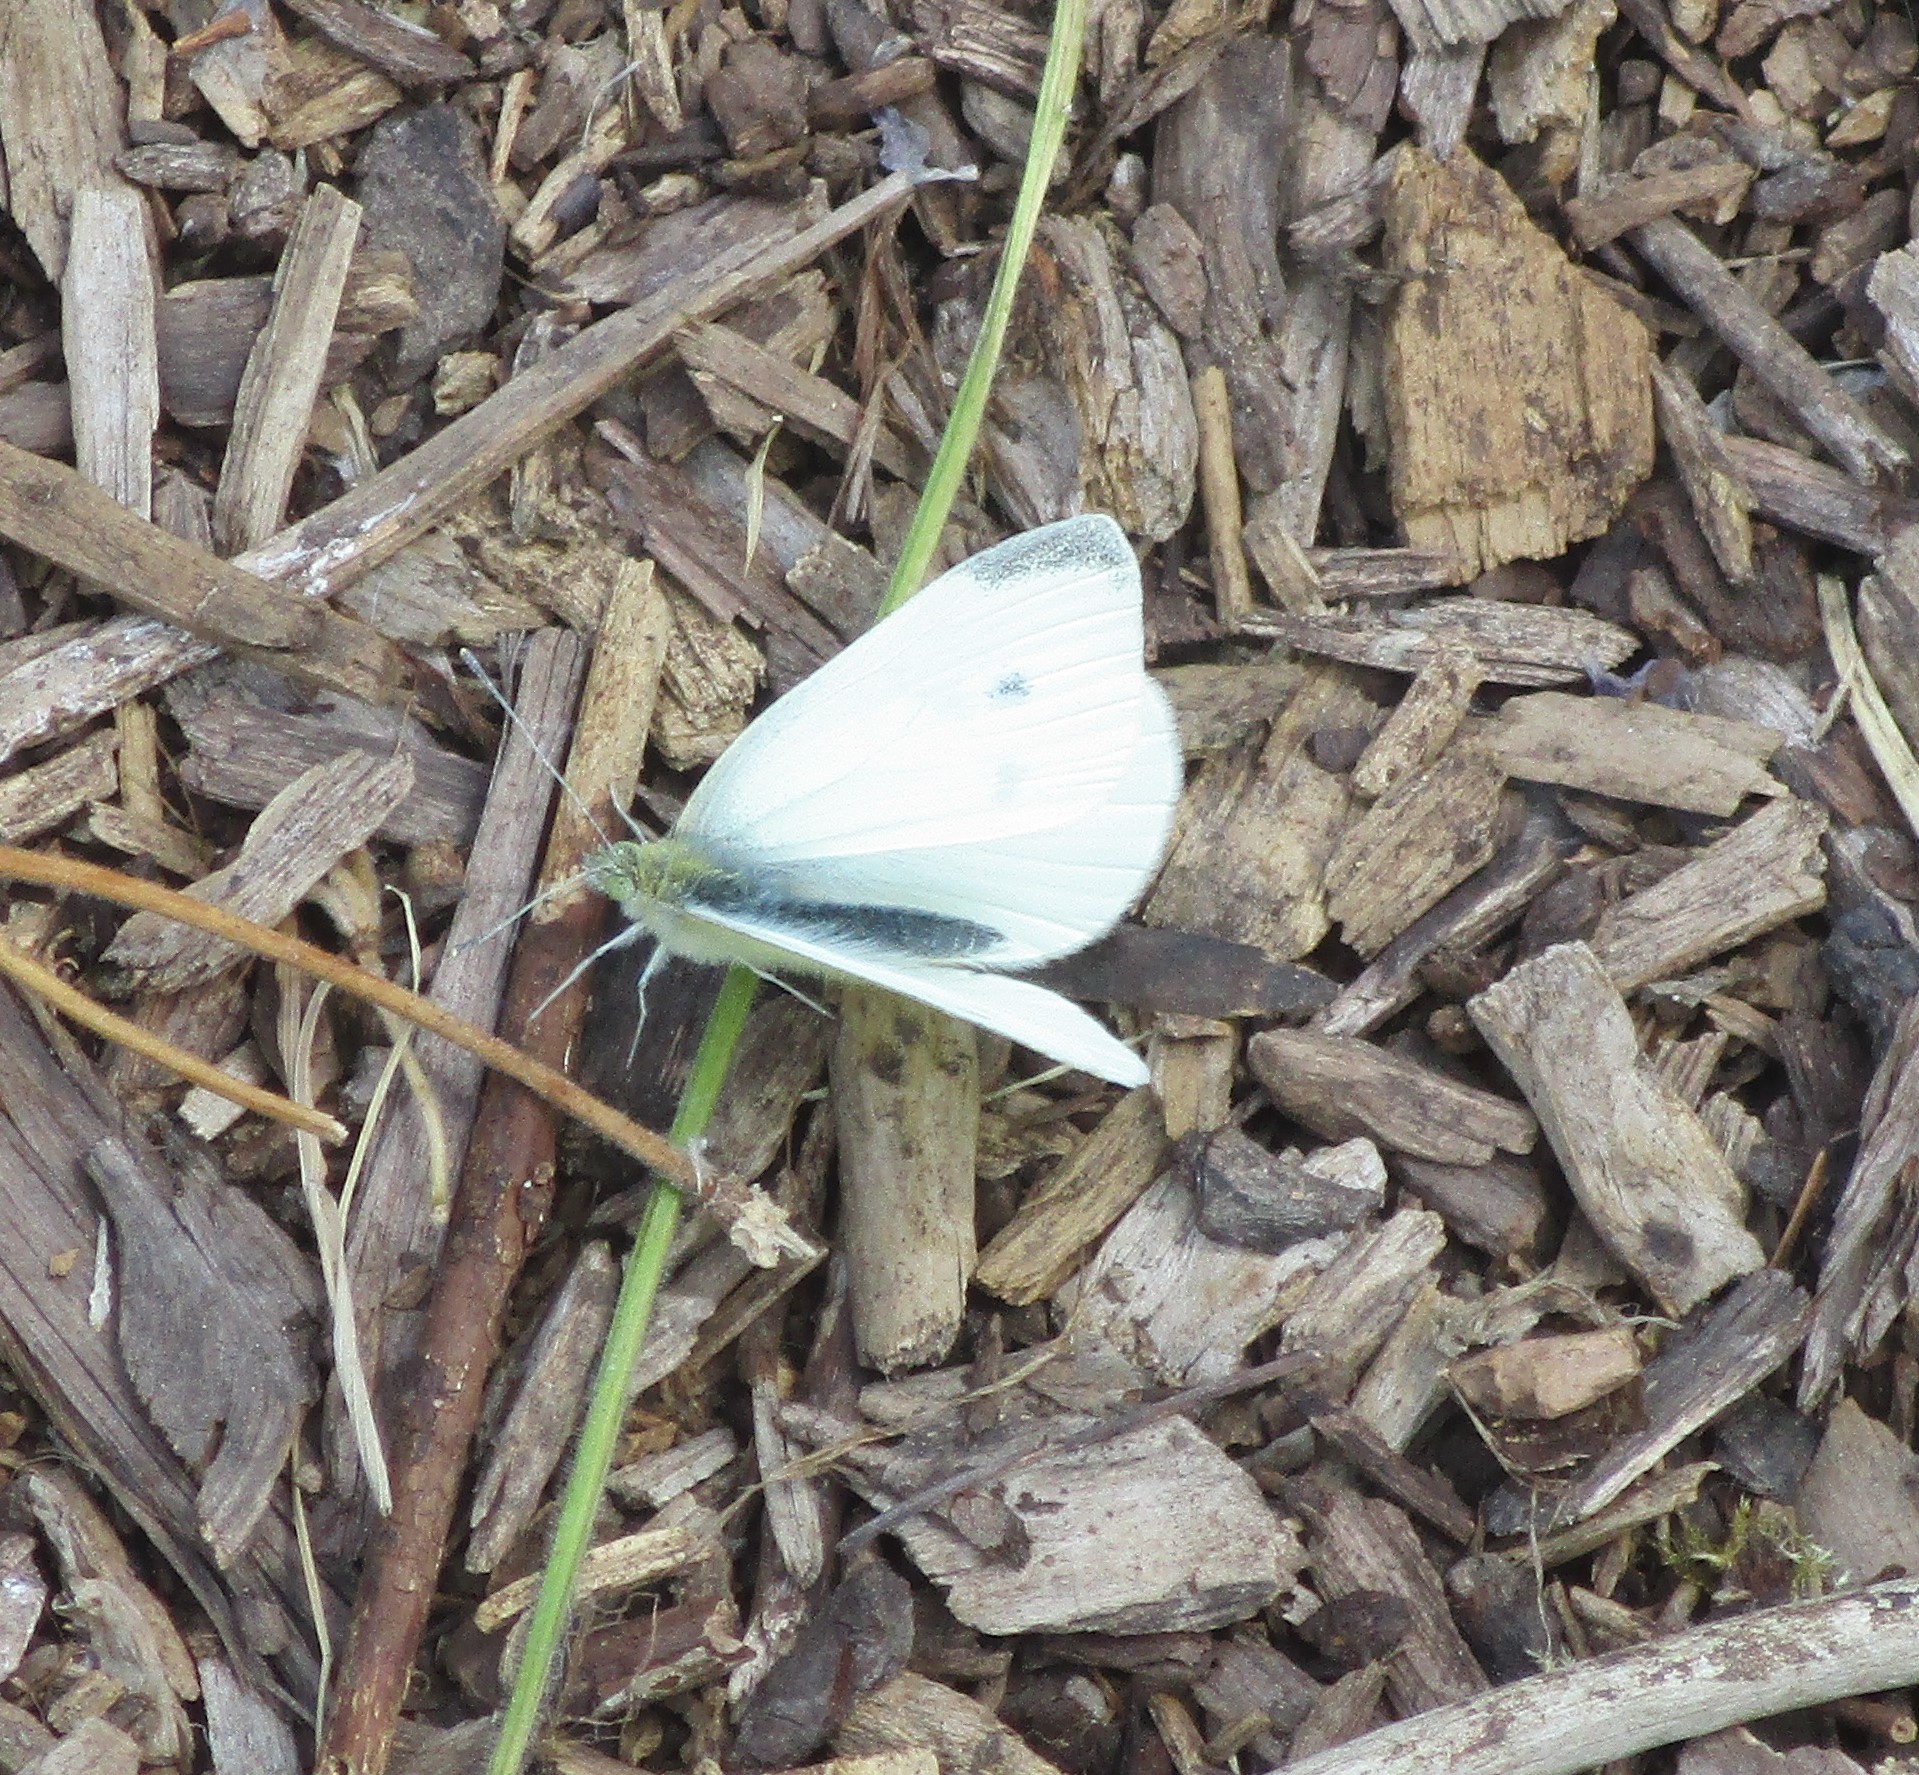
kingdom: Animalia
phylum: Arthropoda
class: Insecta
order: Lepidoptera
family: Pieridae
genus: Pieris
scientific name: Pieris rapae
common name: Small white
